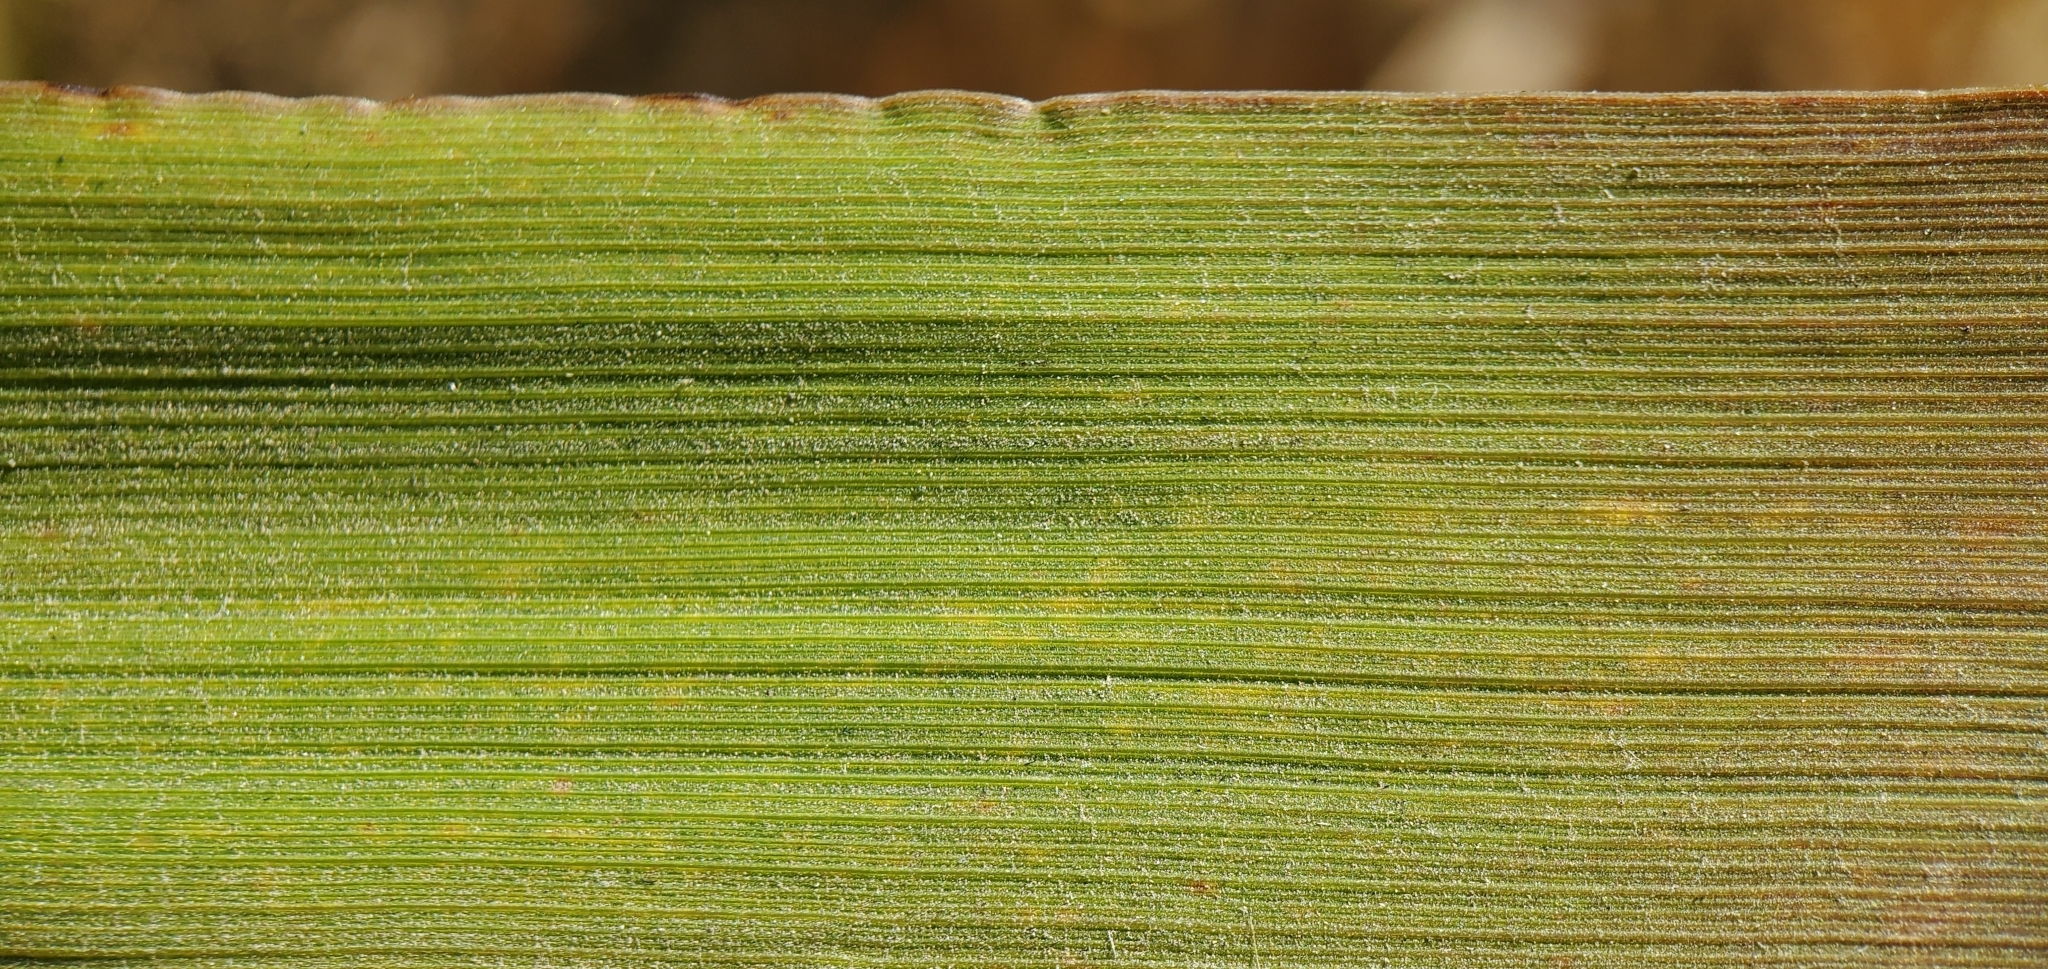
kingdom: Plantae
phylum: Tracheophyta
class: Liliopsida
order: Poales
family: Poaceae
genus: Leymus
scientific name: Leymus condensatus
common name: Giant wild rye
